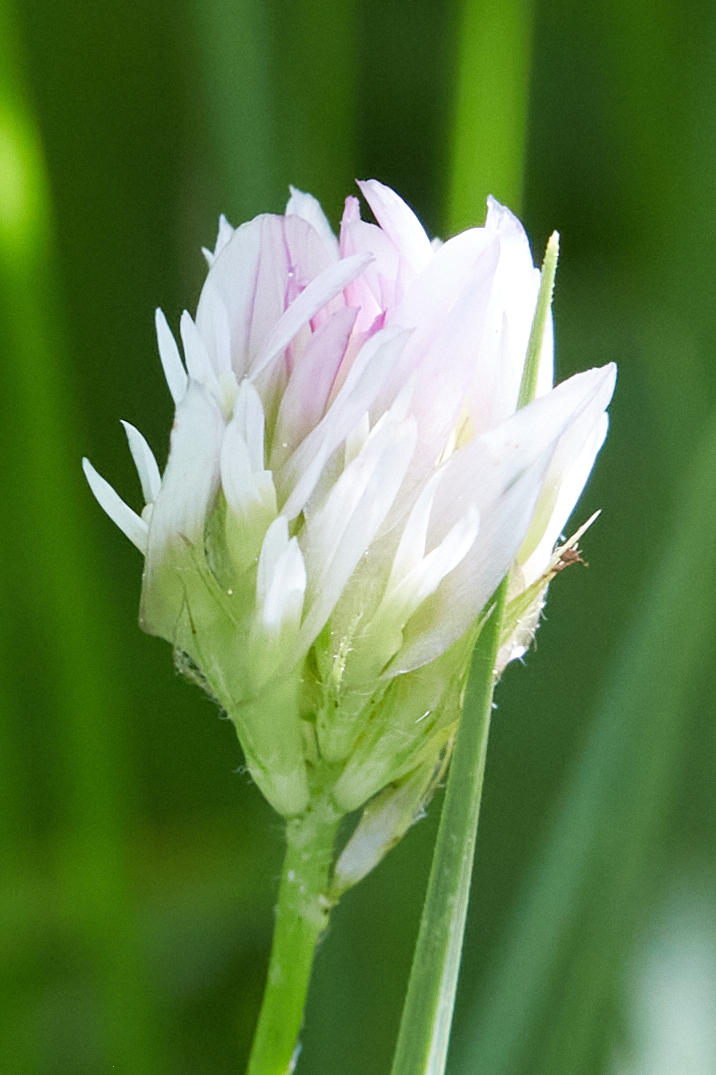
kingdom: Plantae
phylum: Tracheophyta
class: Magnoliopsida
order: Fabales
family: Fabaceae
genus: Trifolium
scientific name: Trifolium longipes
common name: Long-stalk clover
